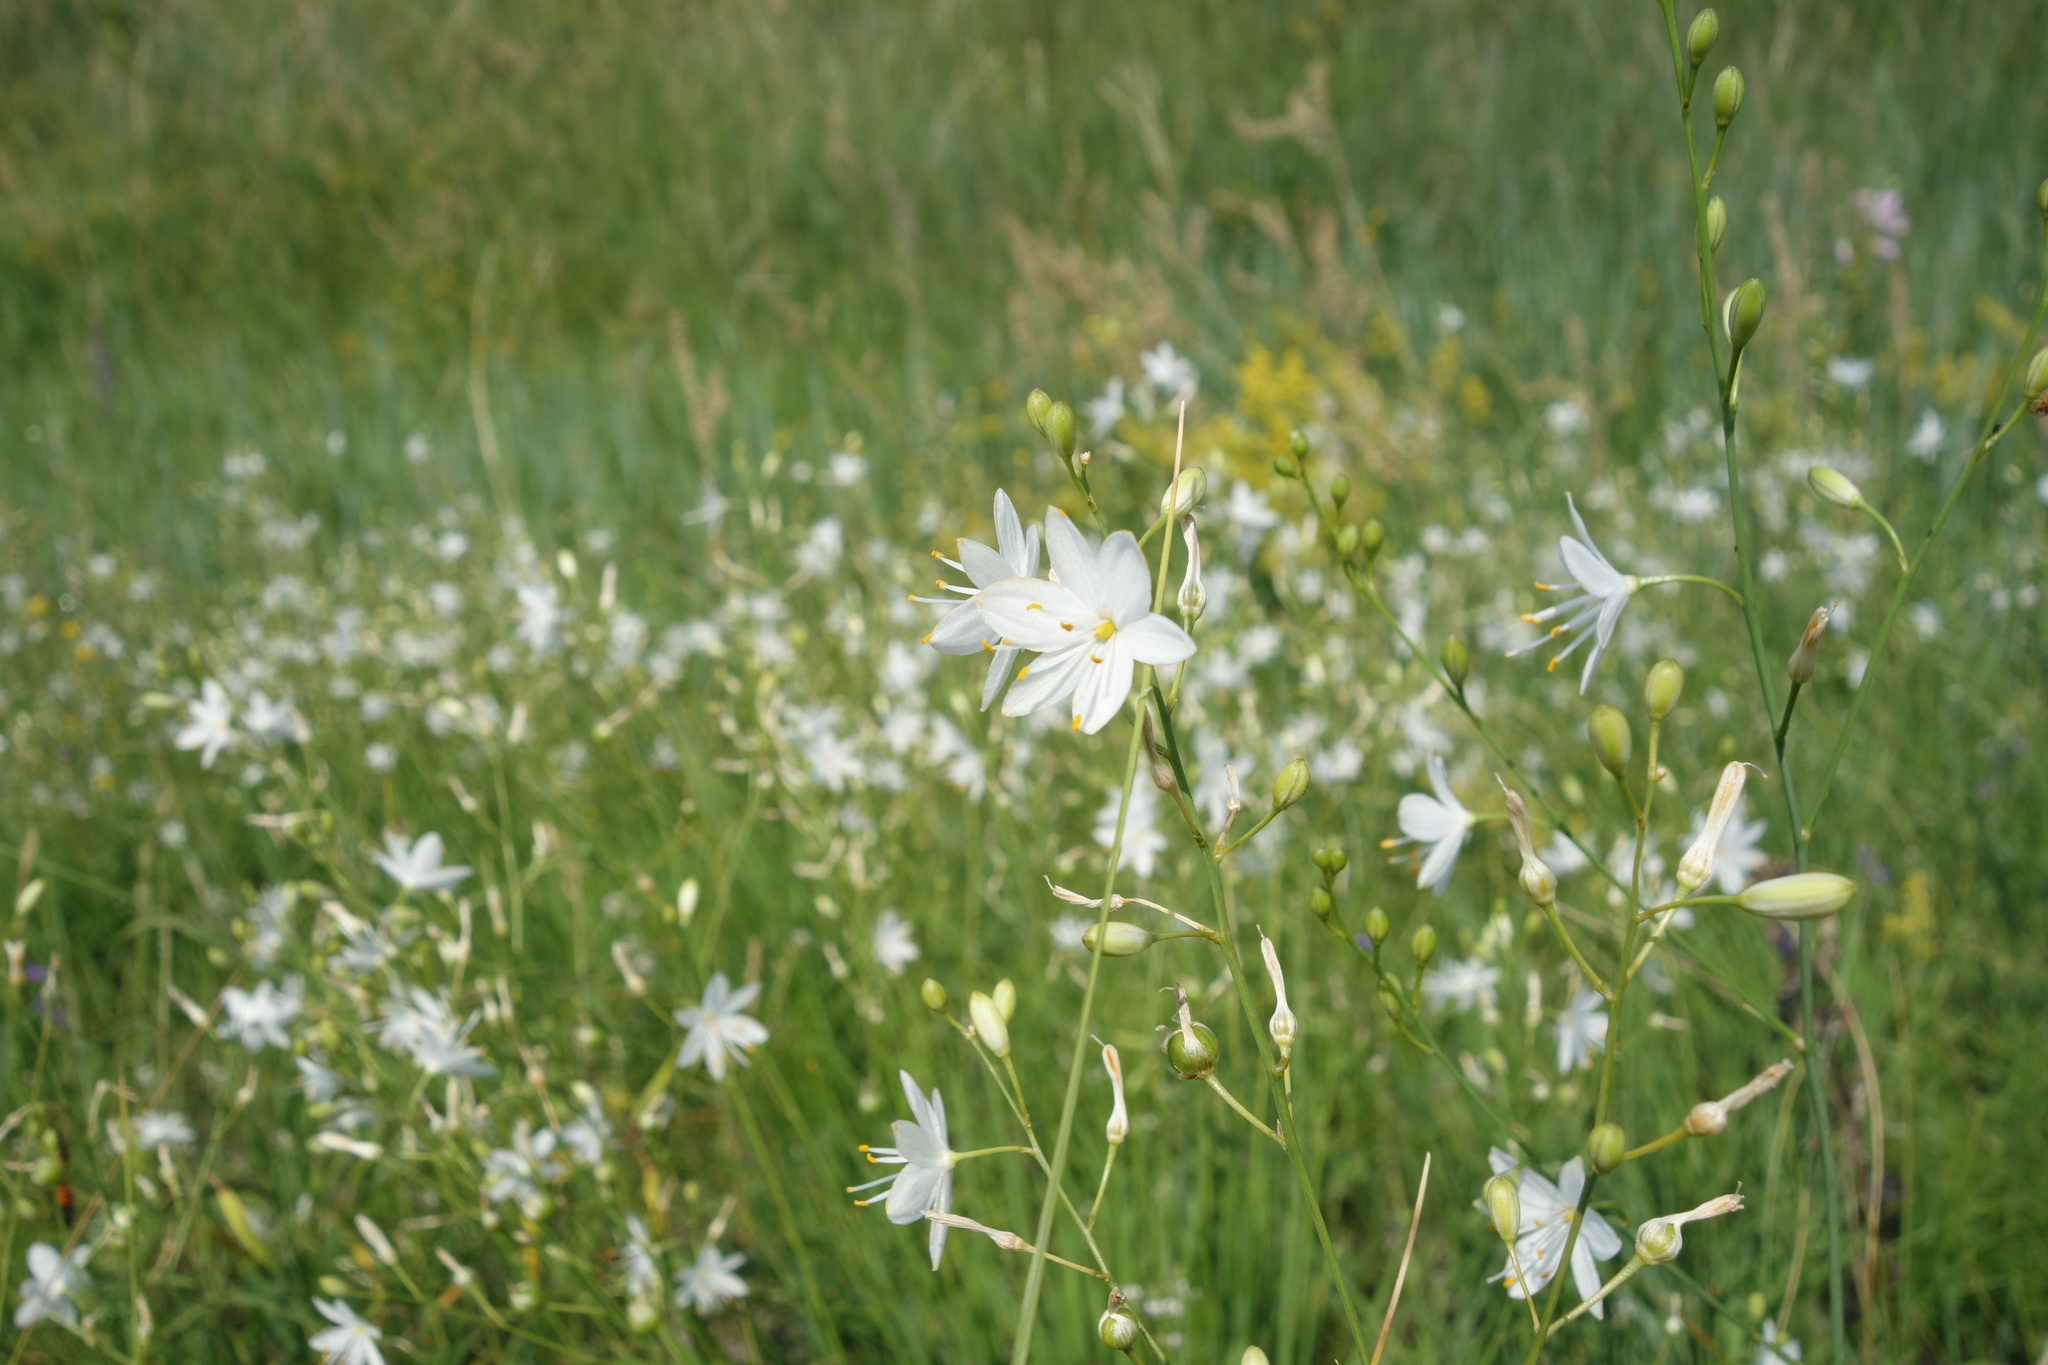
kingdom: Plantae
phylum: Tracheophyta
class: Liliopsida
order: Asparagales
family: Asparagaceae
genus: Anthericum
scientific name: Anthericum ramosum
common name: Branched st. bernard's-lily
